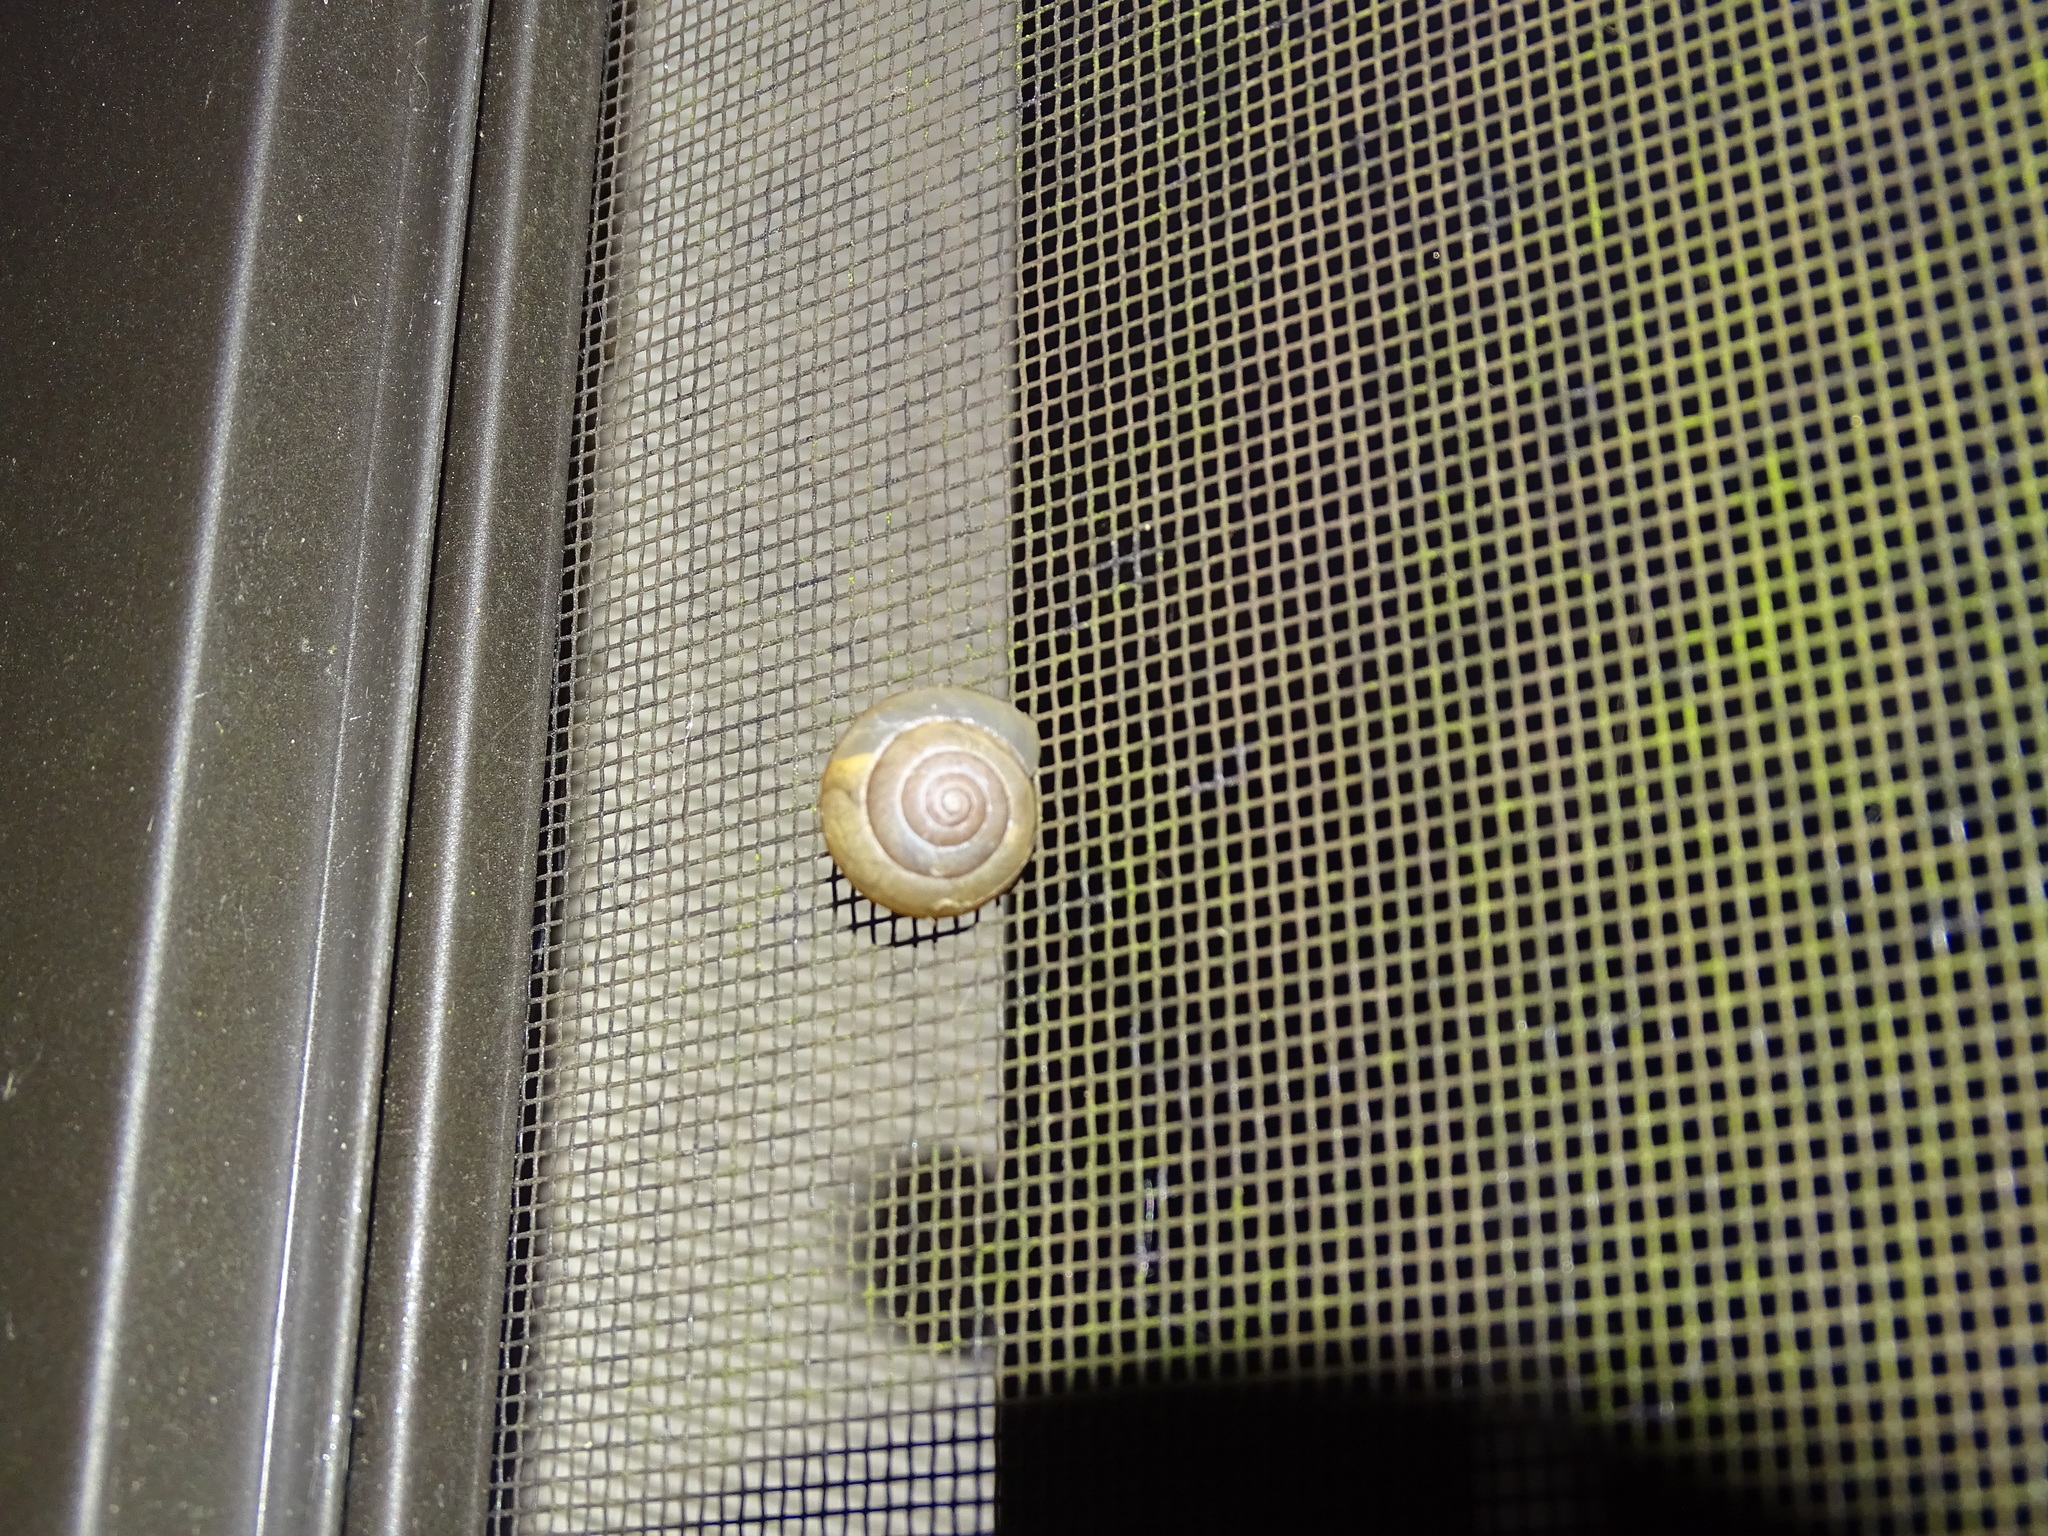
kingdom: Animalia
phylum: Mollusca
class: Gastropoda
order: Stylommatophora
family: Camaenidae
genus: Bradybaena
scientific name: Bradybaena similaris
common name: Asian trampsnail
